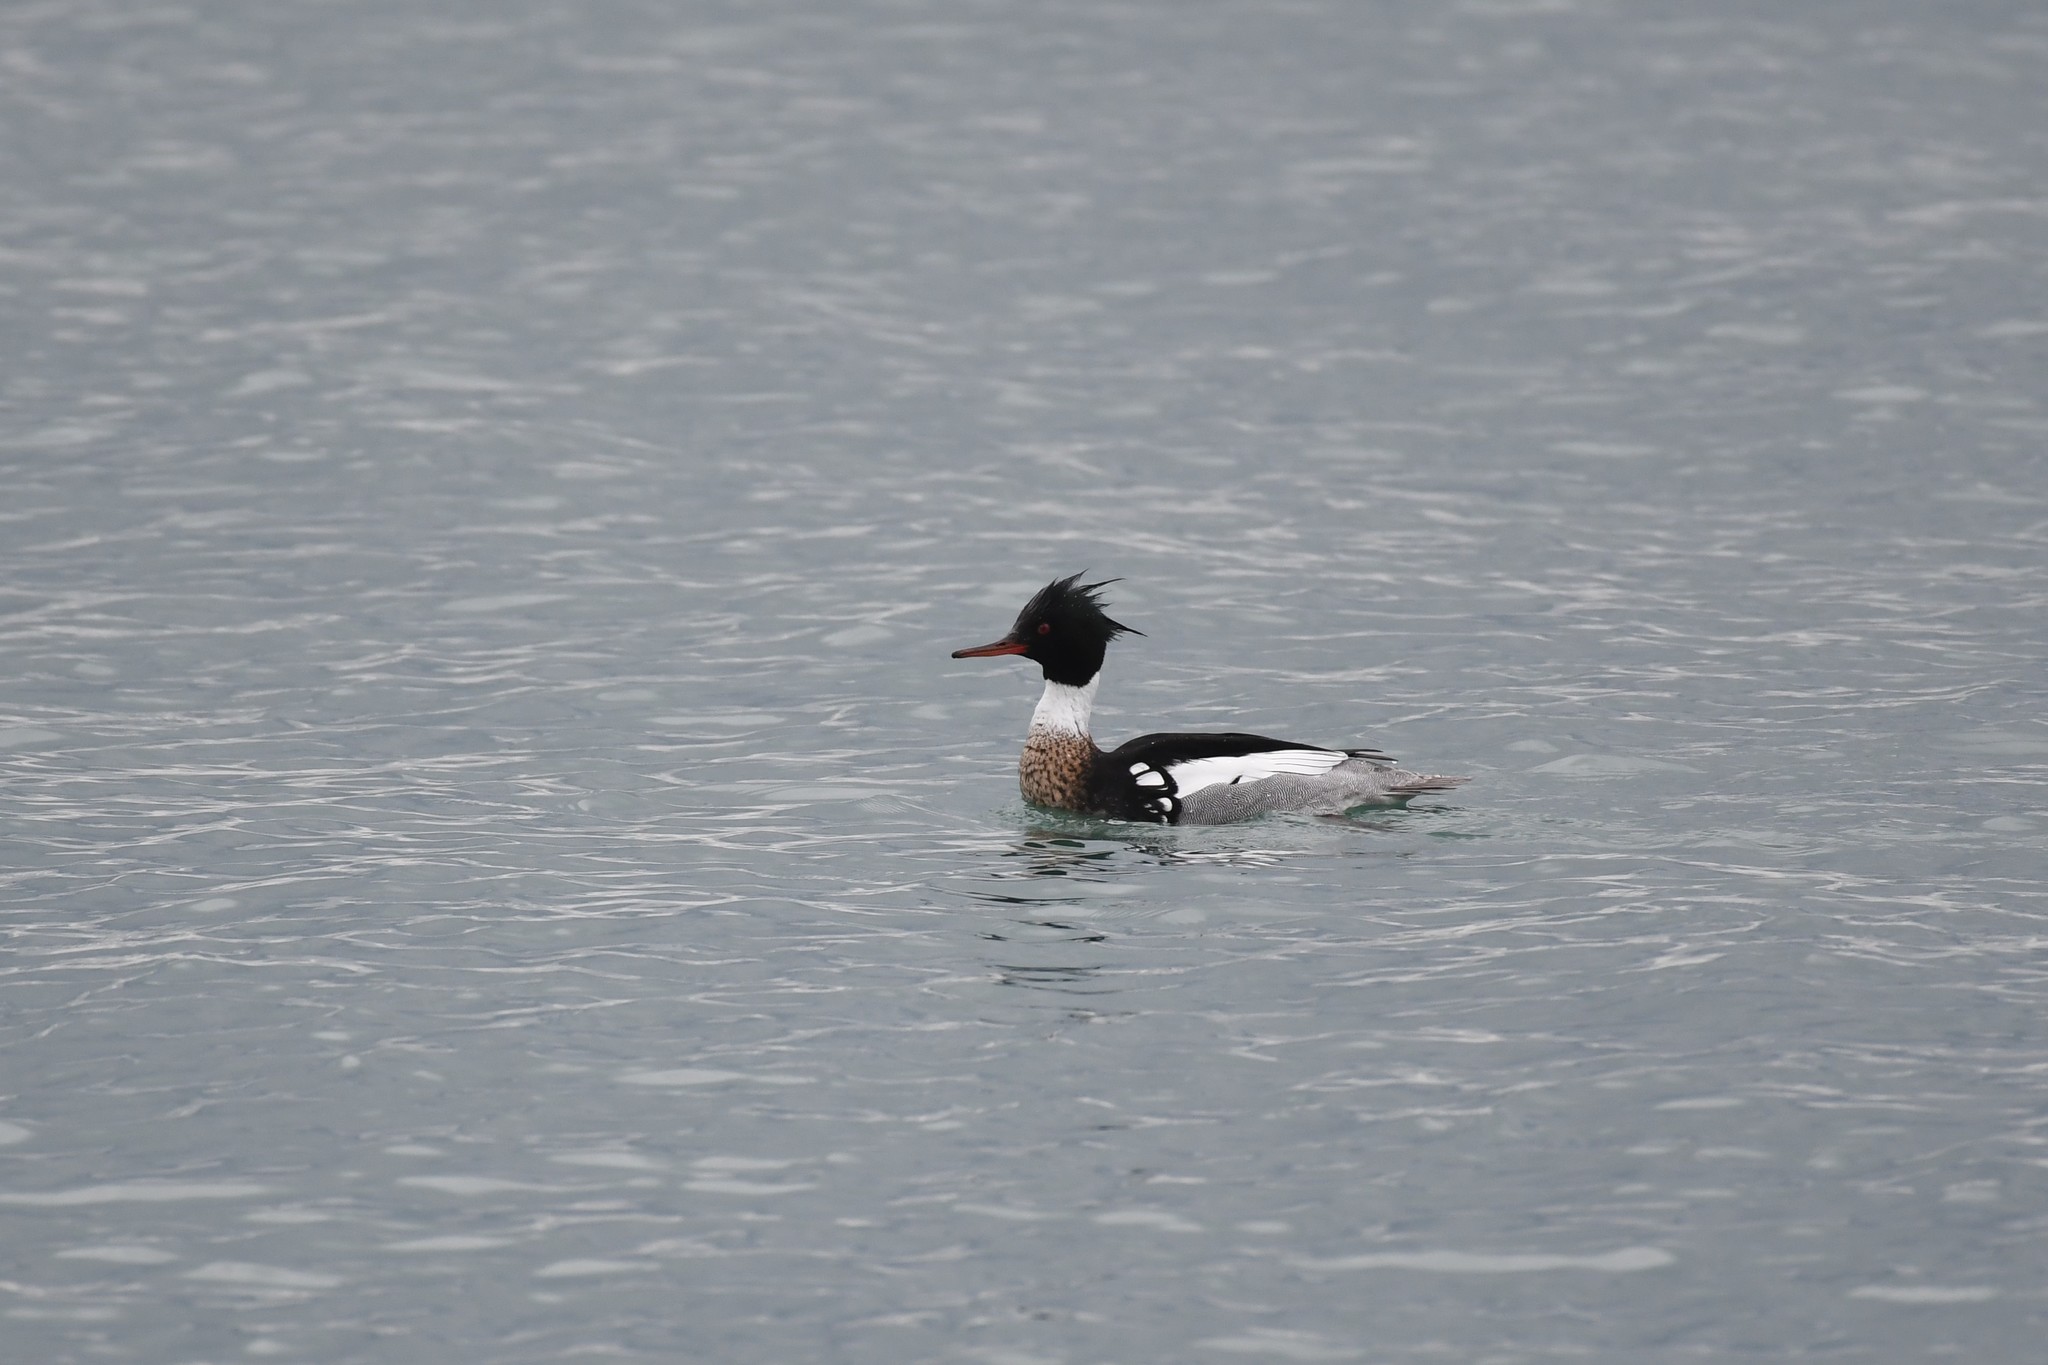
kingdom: Animalia
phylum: Chordata
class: Aves
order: Anseriformes
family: Anatidae
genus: Mergus
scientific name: Mergus serrator
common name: Red-breasted merganser
